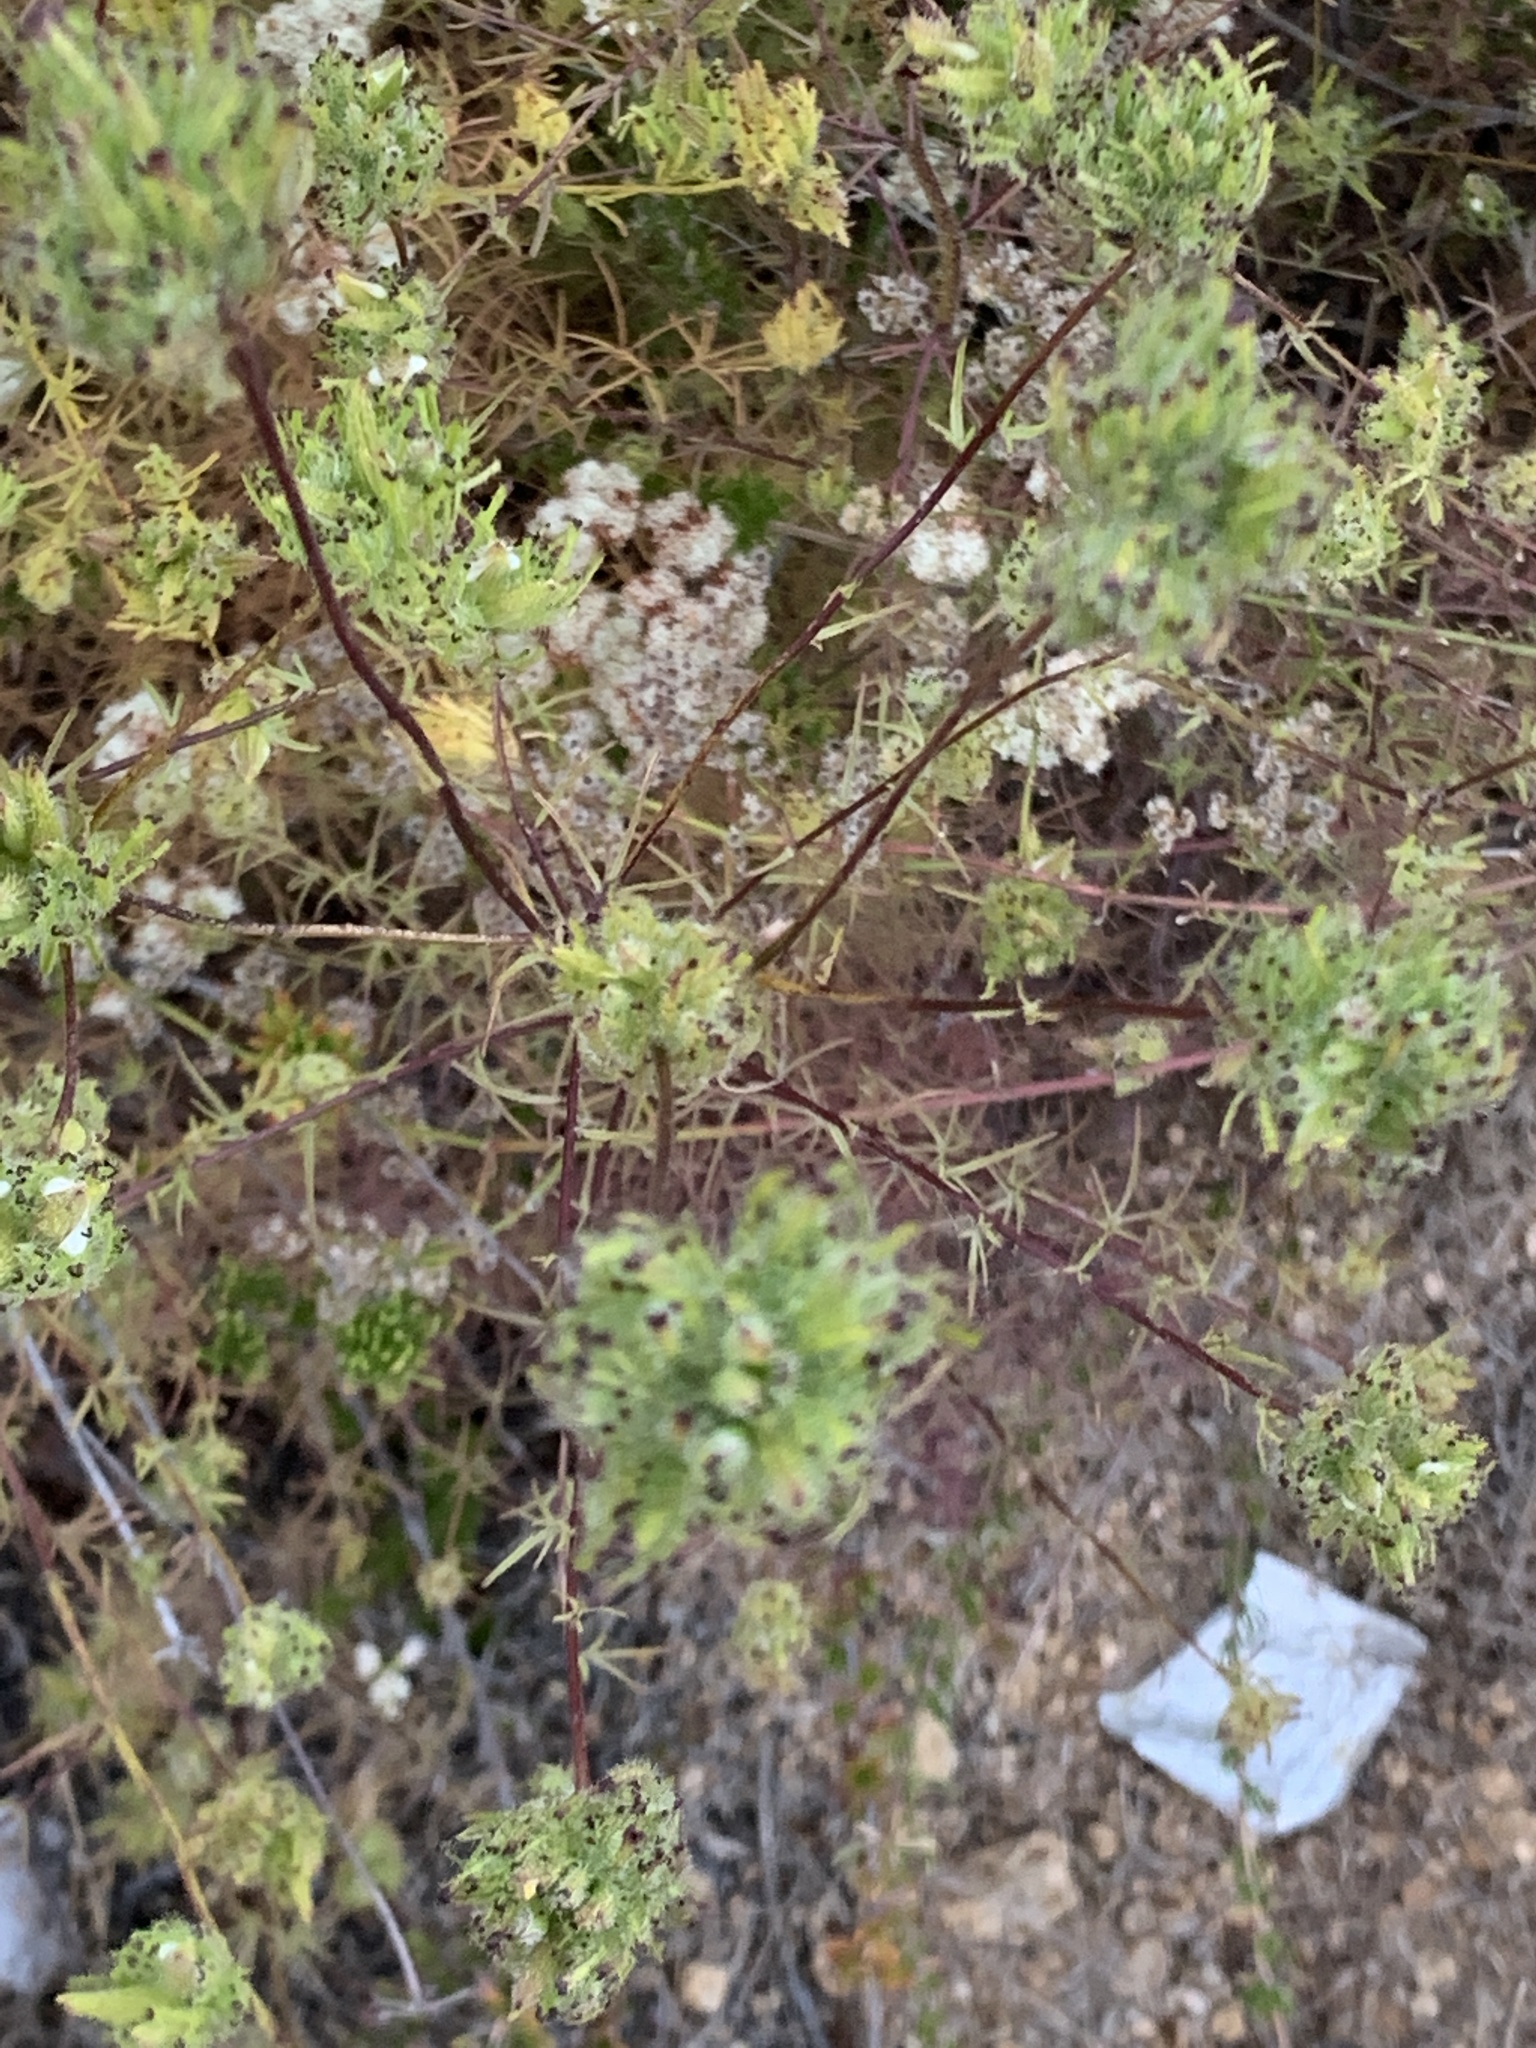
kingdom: Plantae
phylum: Tracheophyta
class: Magnoliopsida
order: Lamiales
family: Orobanchaceae
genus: Cordylanthus
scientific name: Cordylanthus rigidus
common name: Stiff-branch bird's-beak
